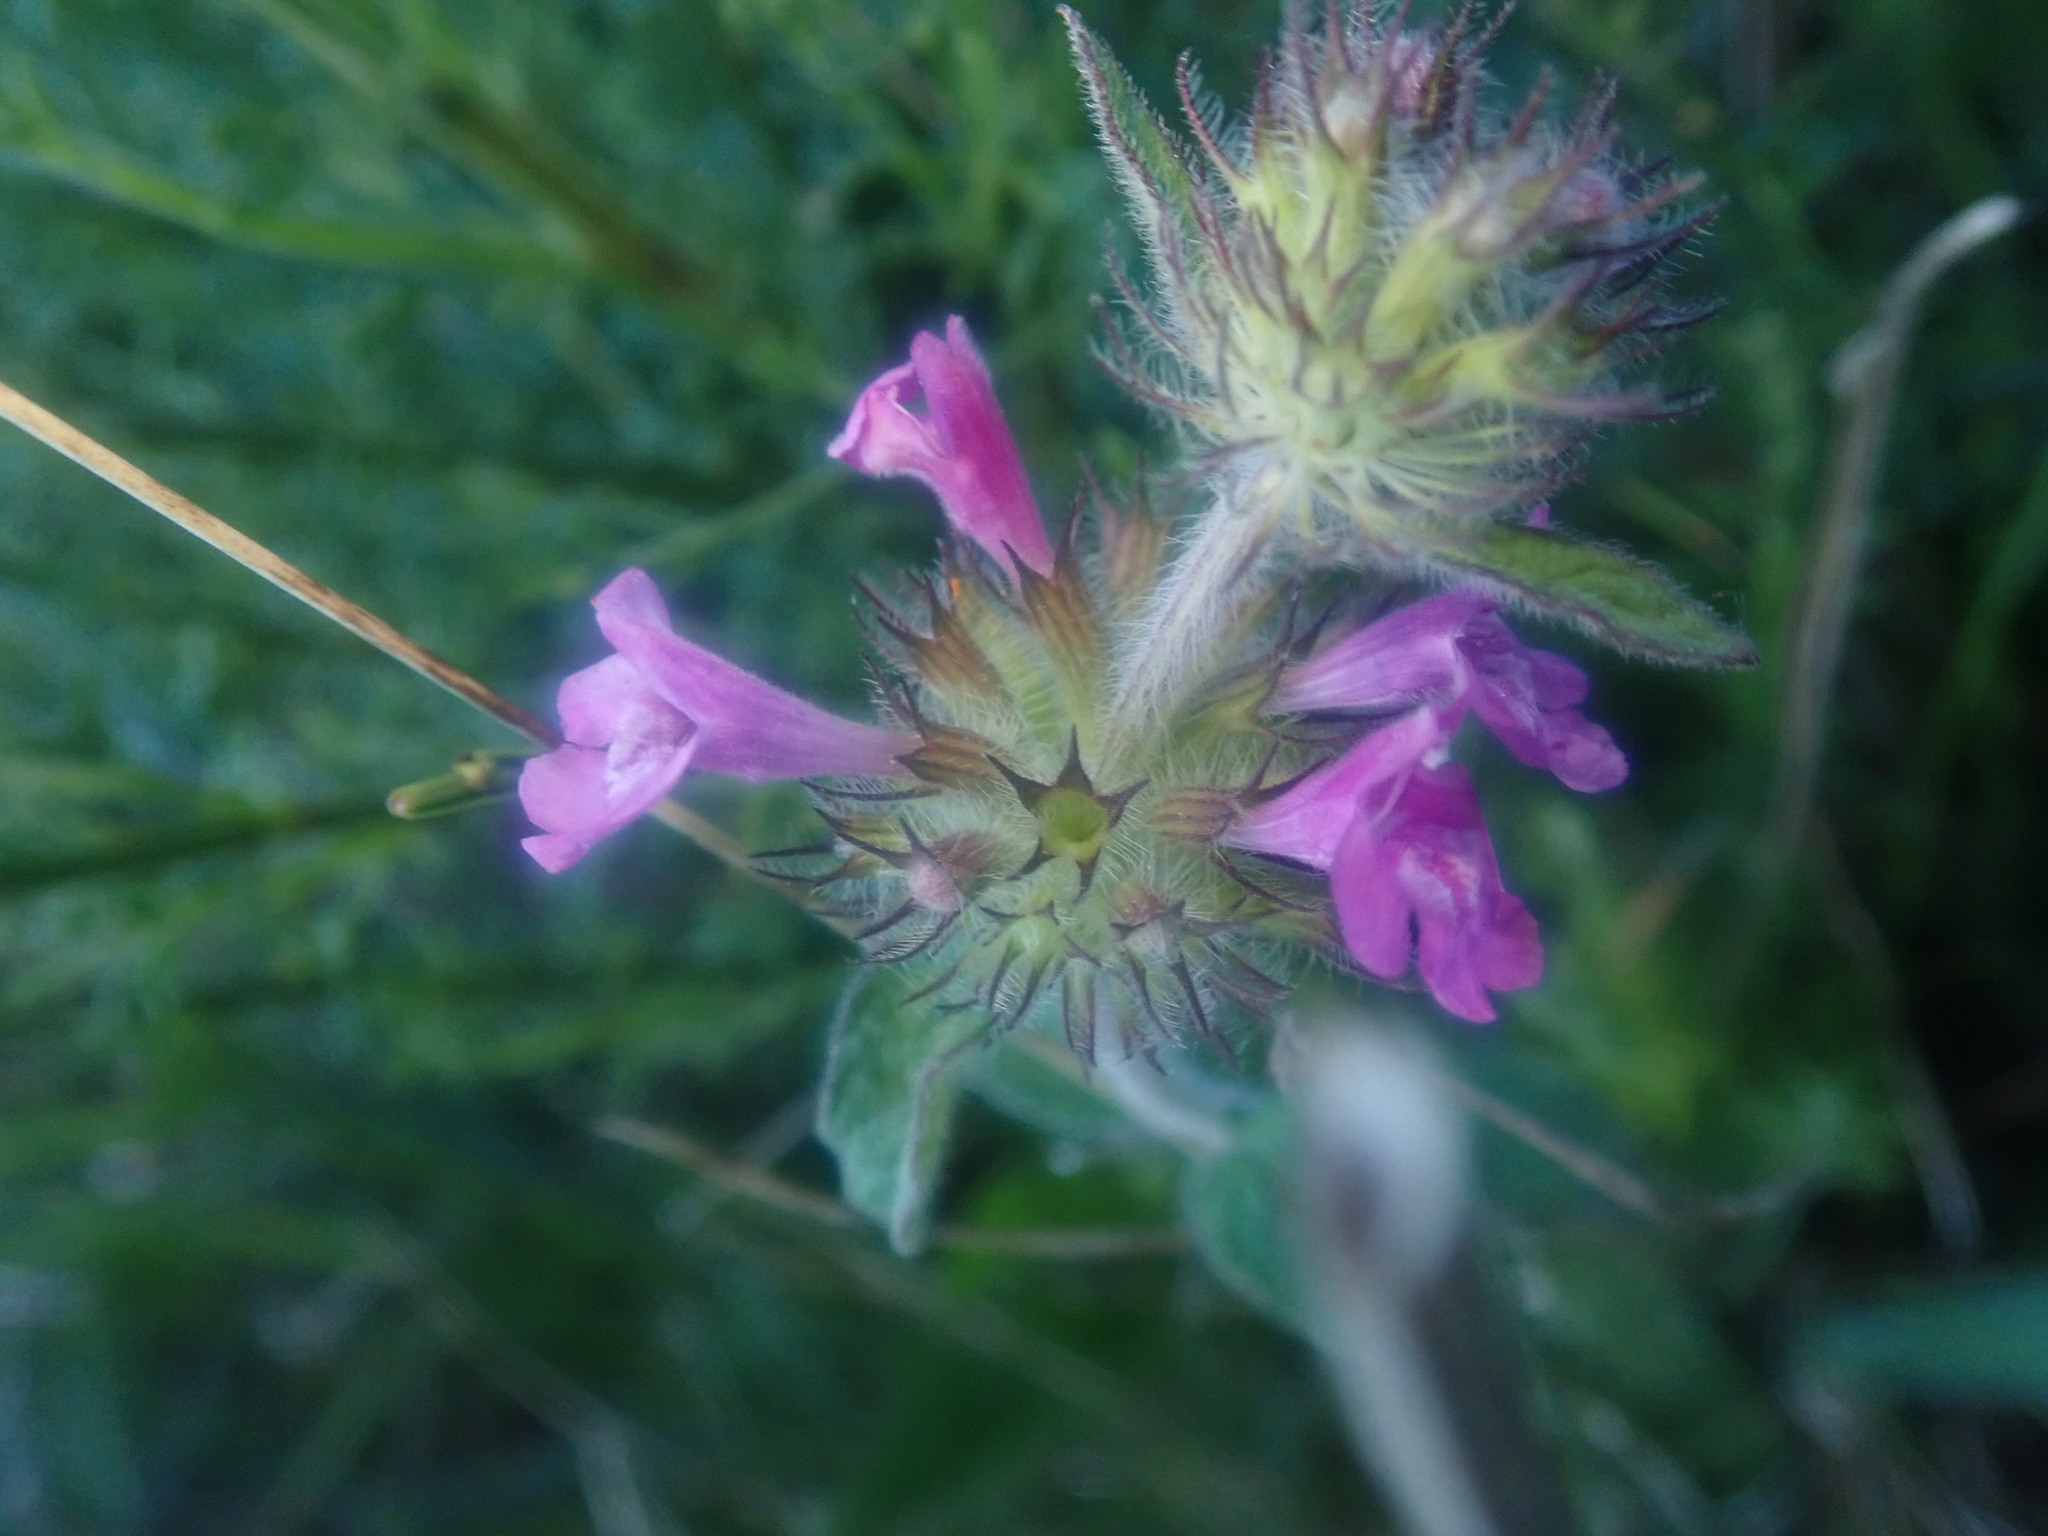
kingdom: Plantae
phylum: Tracheophyta
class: Magnoliopsida
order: Lamiales
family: Lamiaceae
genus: Clinopodium
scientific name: Clinopodium vulgare
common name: Wild basil
